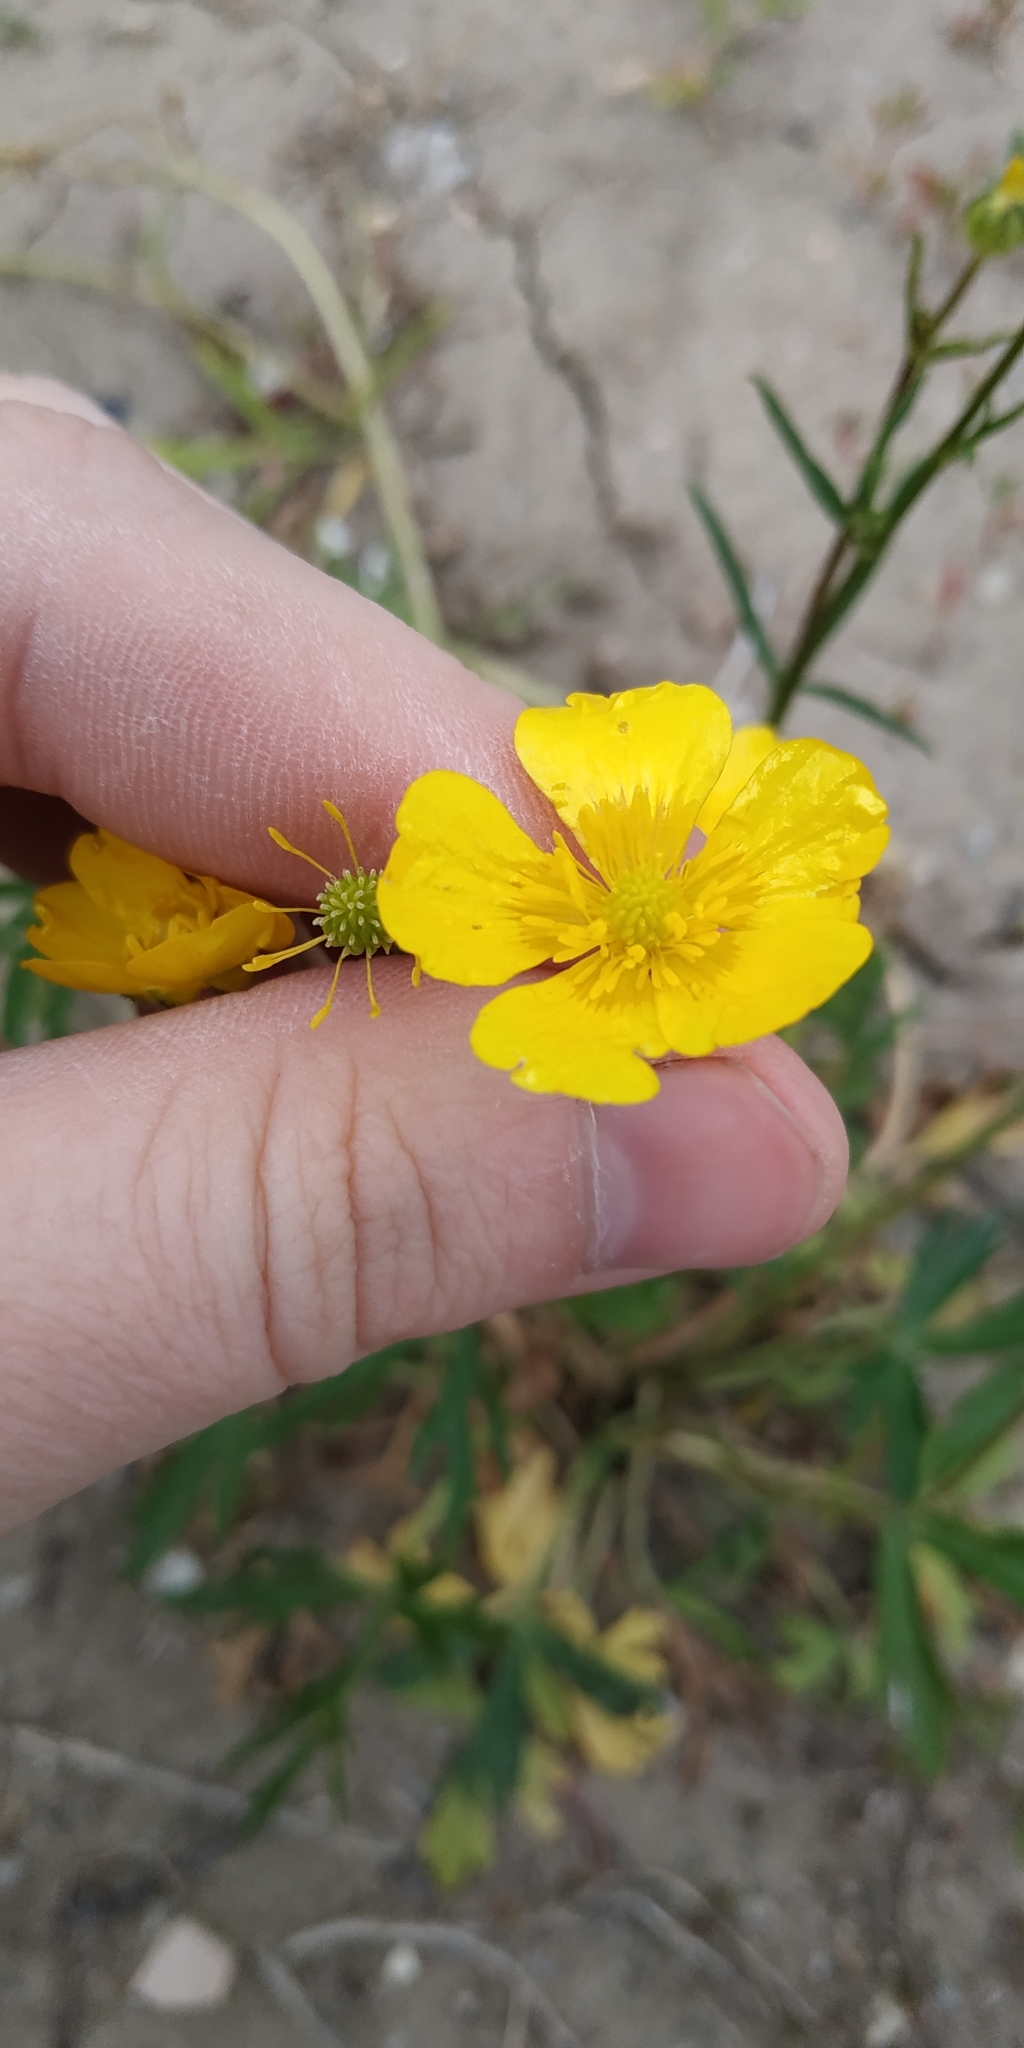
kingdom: Plantae
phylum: Tracheophyta
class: Magnoliopsida
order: Ranunculales
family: Ranunculaceae
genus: Ranunculus
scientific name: Ranunculus polyanthemos
